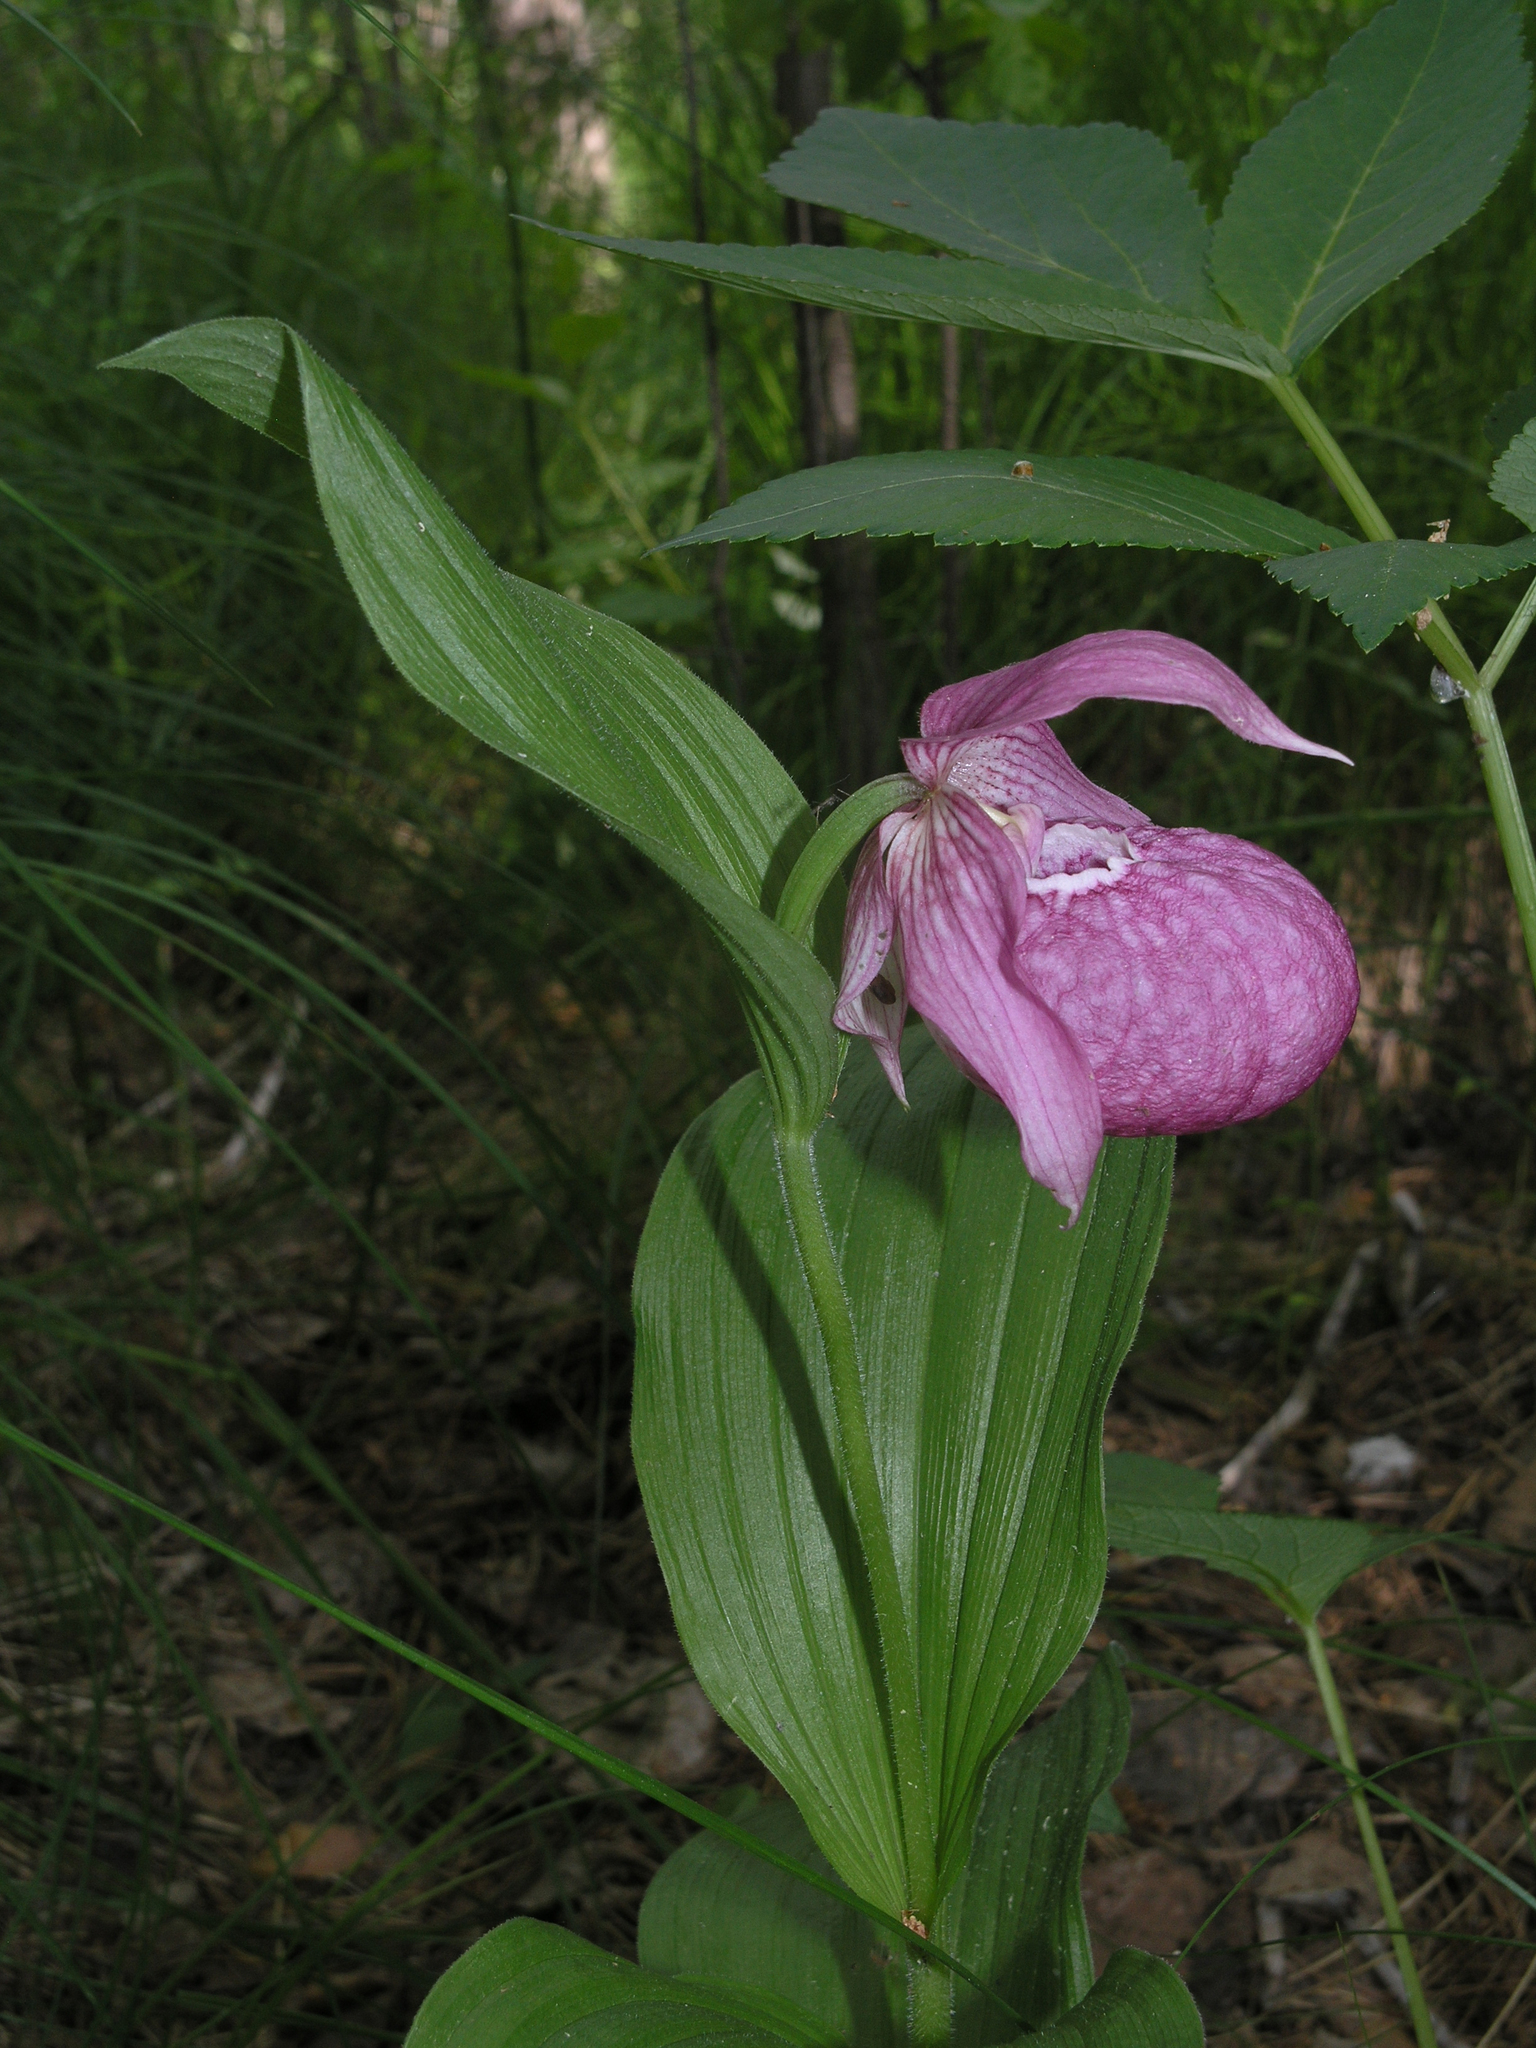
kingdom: Plantae
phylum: Tracheophyta
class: Liliopsida
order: Asparagales
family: Orchidaceae
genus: Cypripedium
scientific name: Cypripedium macranthos
